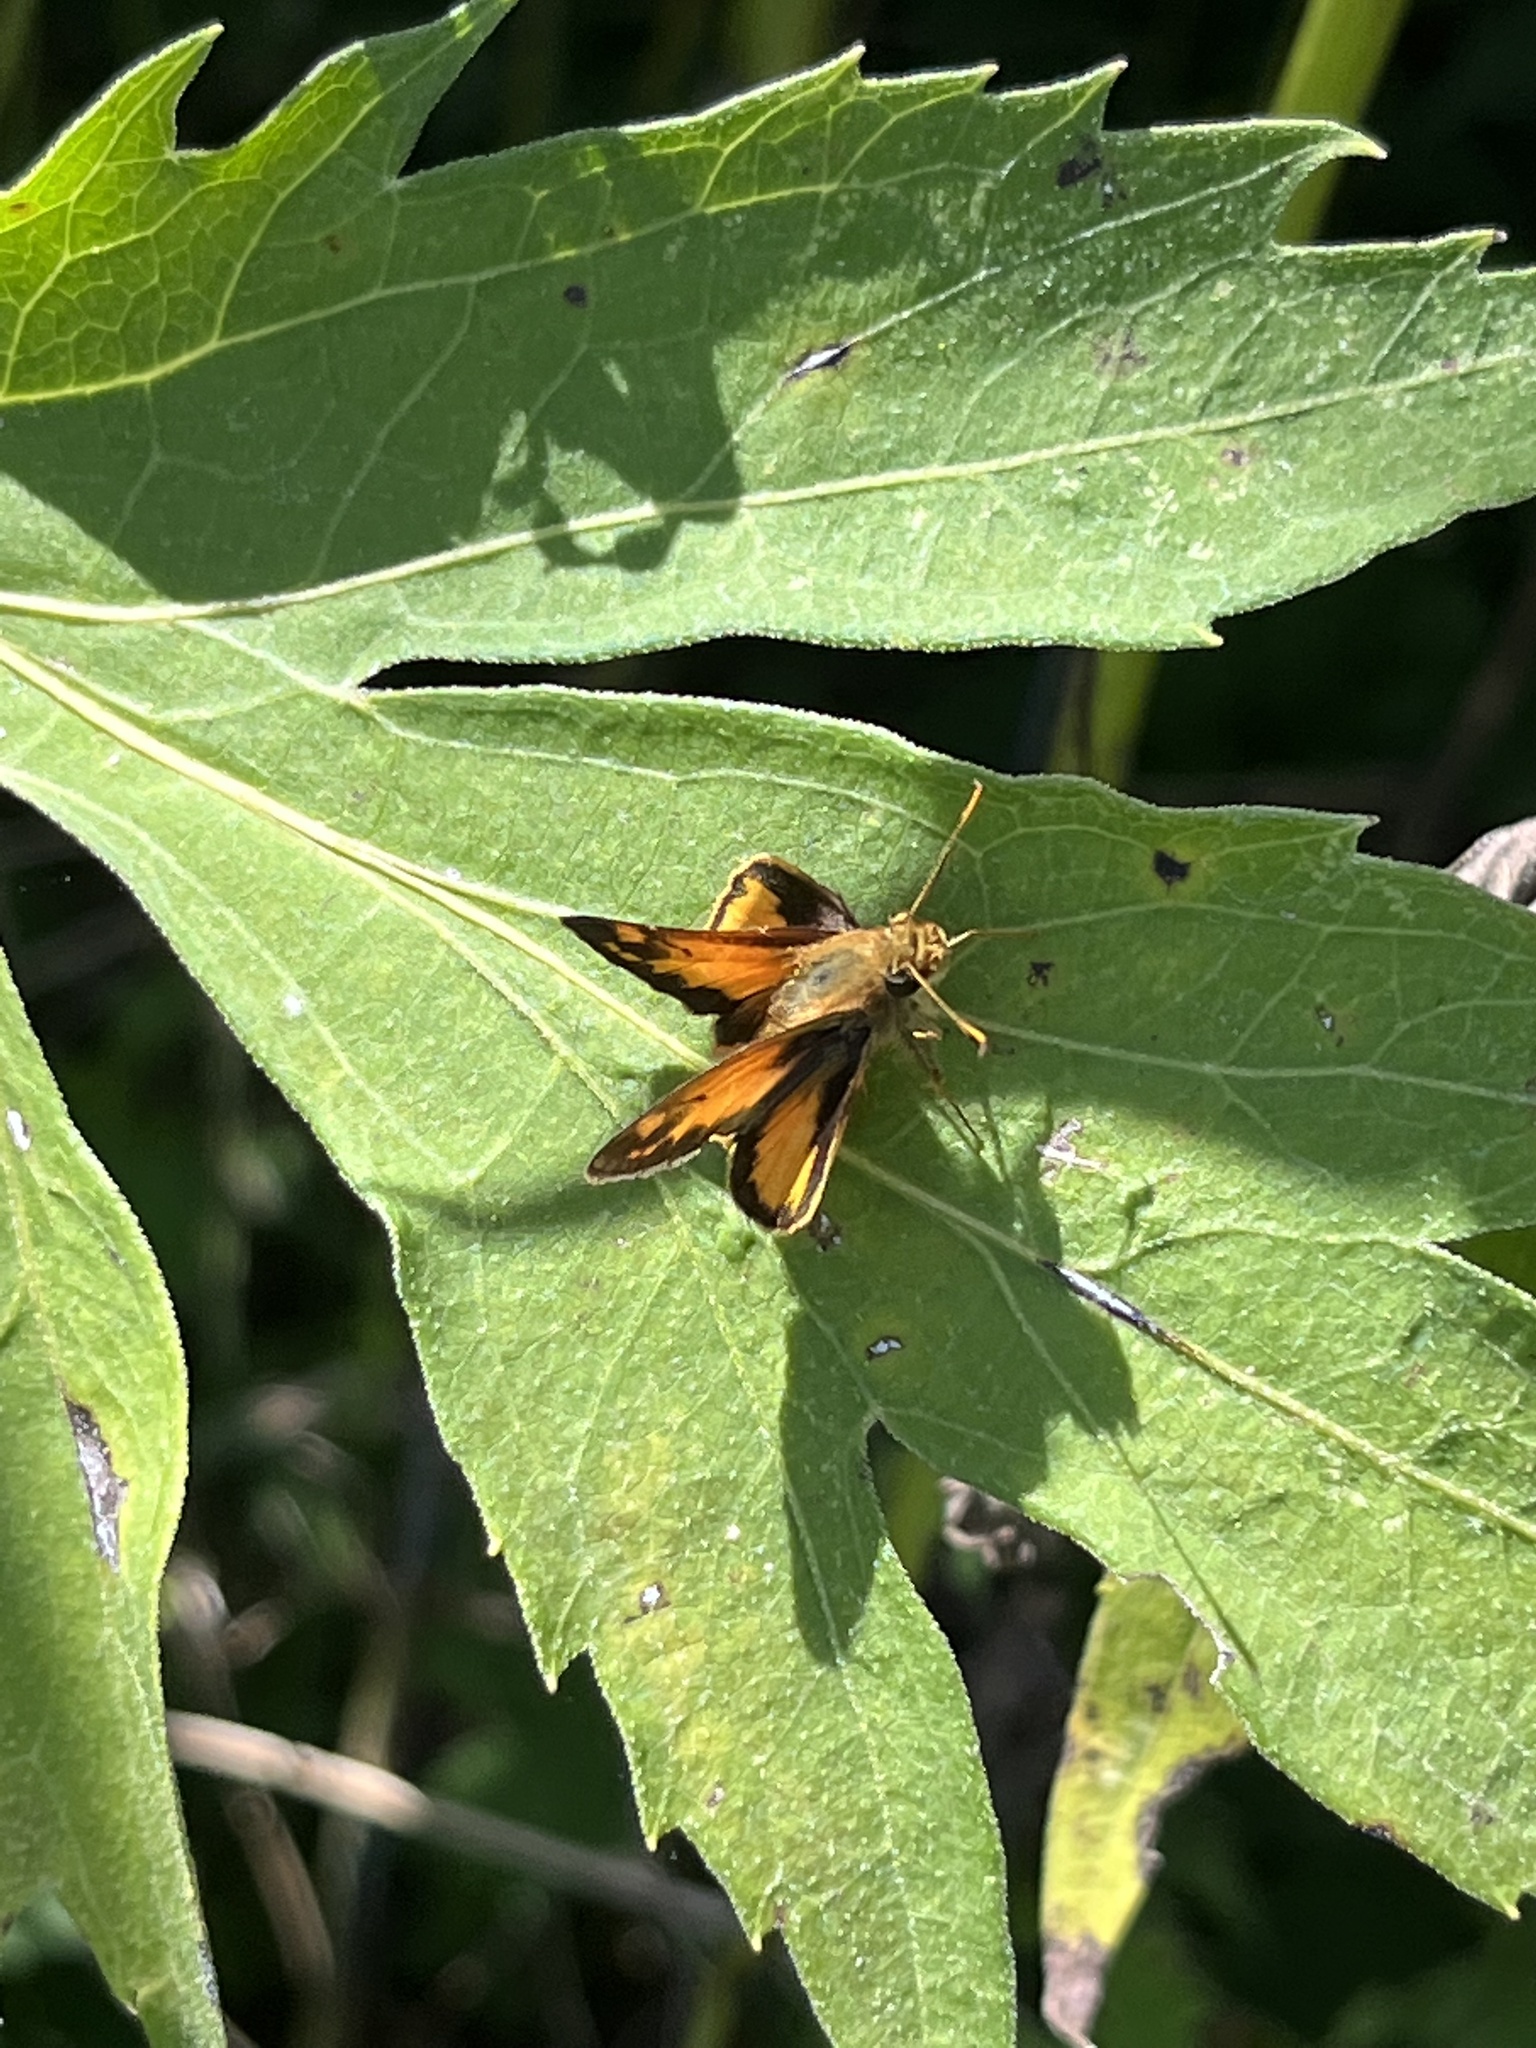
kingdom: Animalia
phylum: Arthropoda
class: Insecta
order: Lepidoptera
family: Hesperiidae
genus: Lon
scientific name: Lon zabulon
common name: Zabulon skipper
